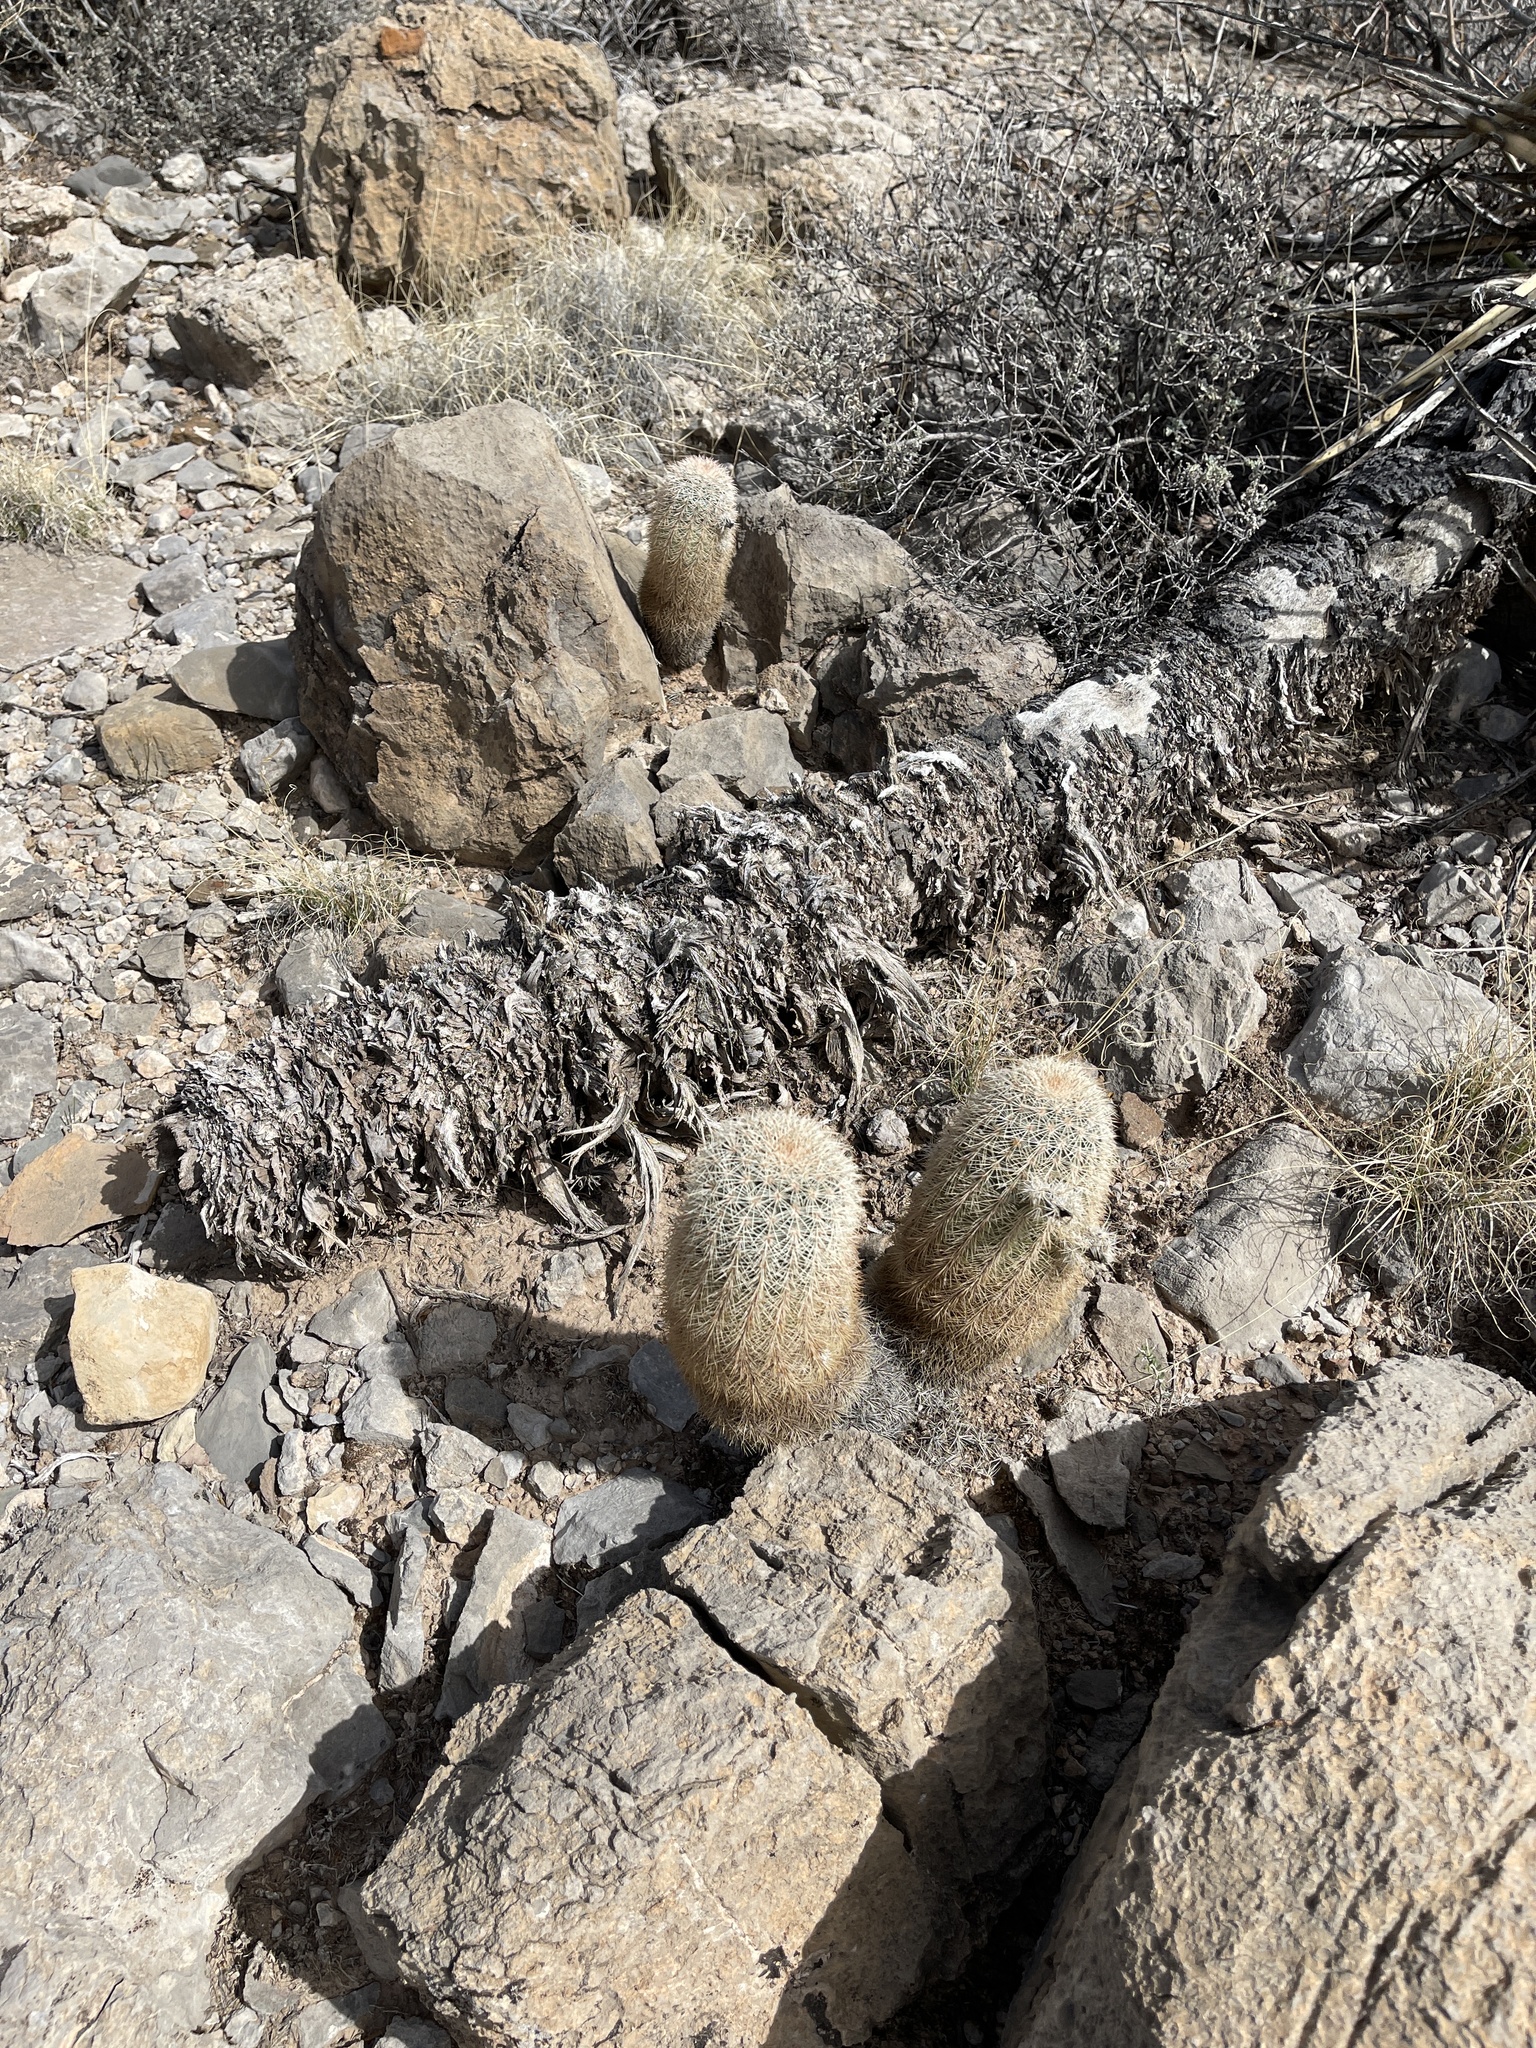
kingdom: Plantae
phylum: Tracheophyta
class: Magnoliopsida
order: Caryophyllales
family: Cactaceae
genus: Echinocereus
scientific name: Echinocereus dasyacanthus
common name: Spiny hedgehog cactus
